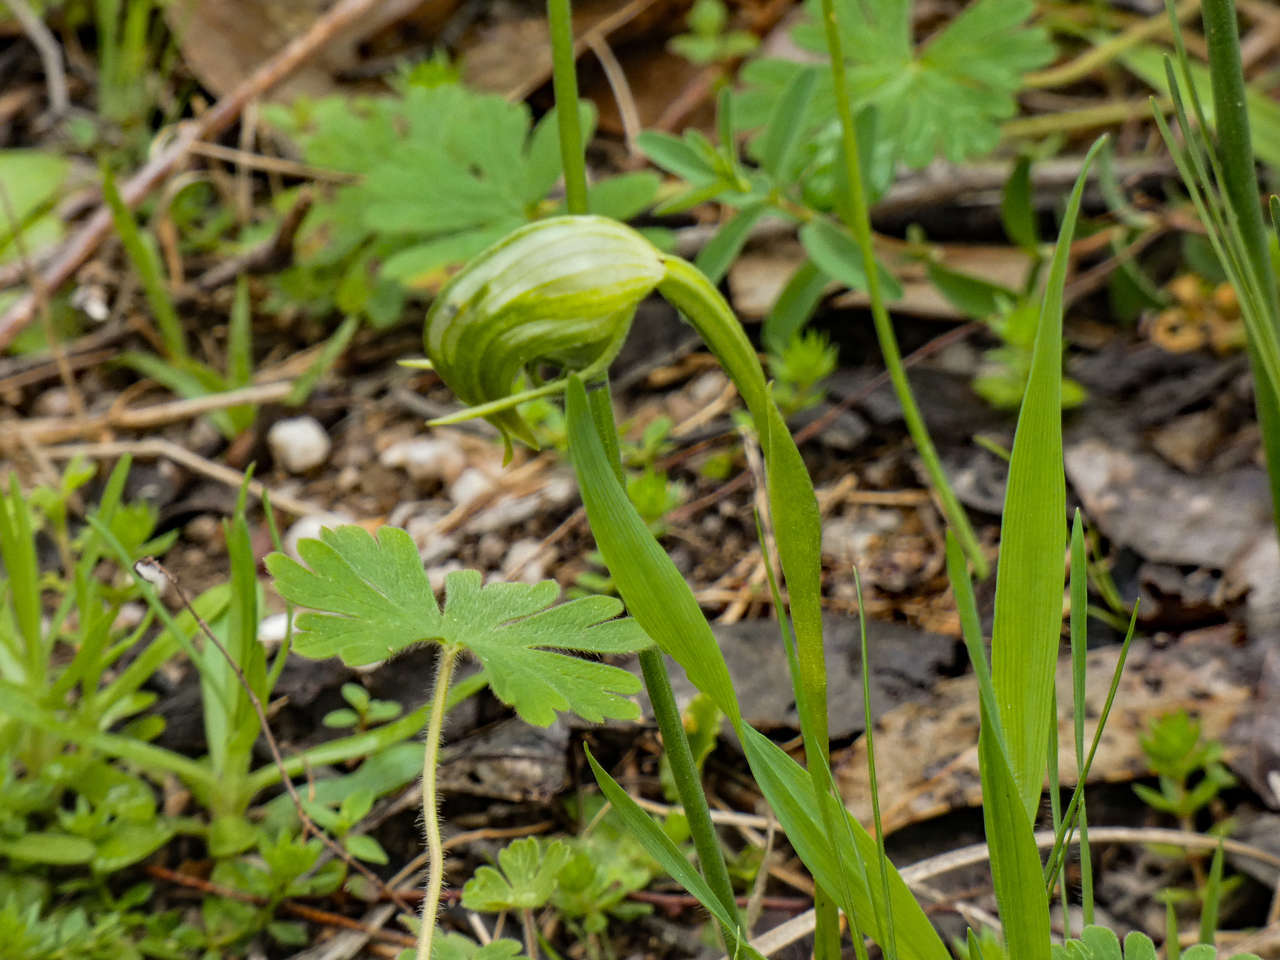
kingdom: Plantae
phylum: Tracheophyta
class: Liliopsida
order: Asparagales
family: Orchidaceae
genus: Pterostylis
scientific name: Pterostylis nutans
